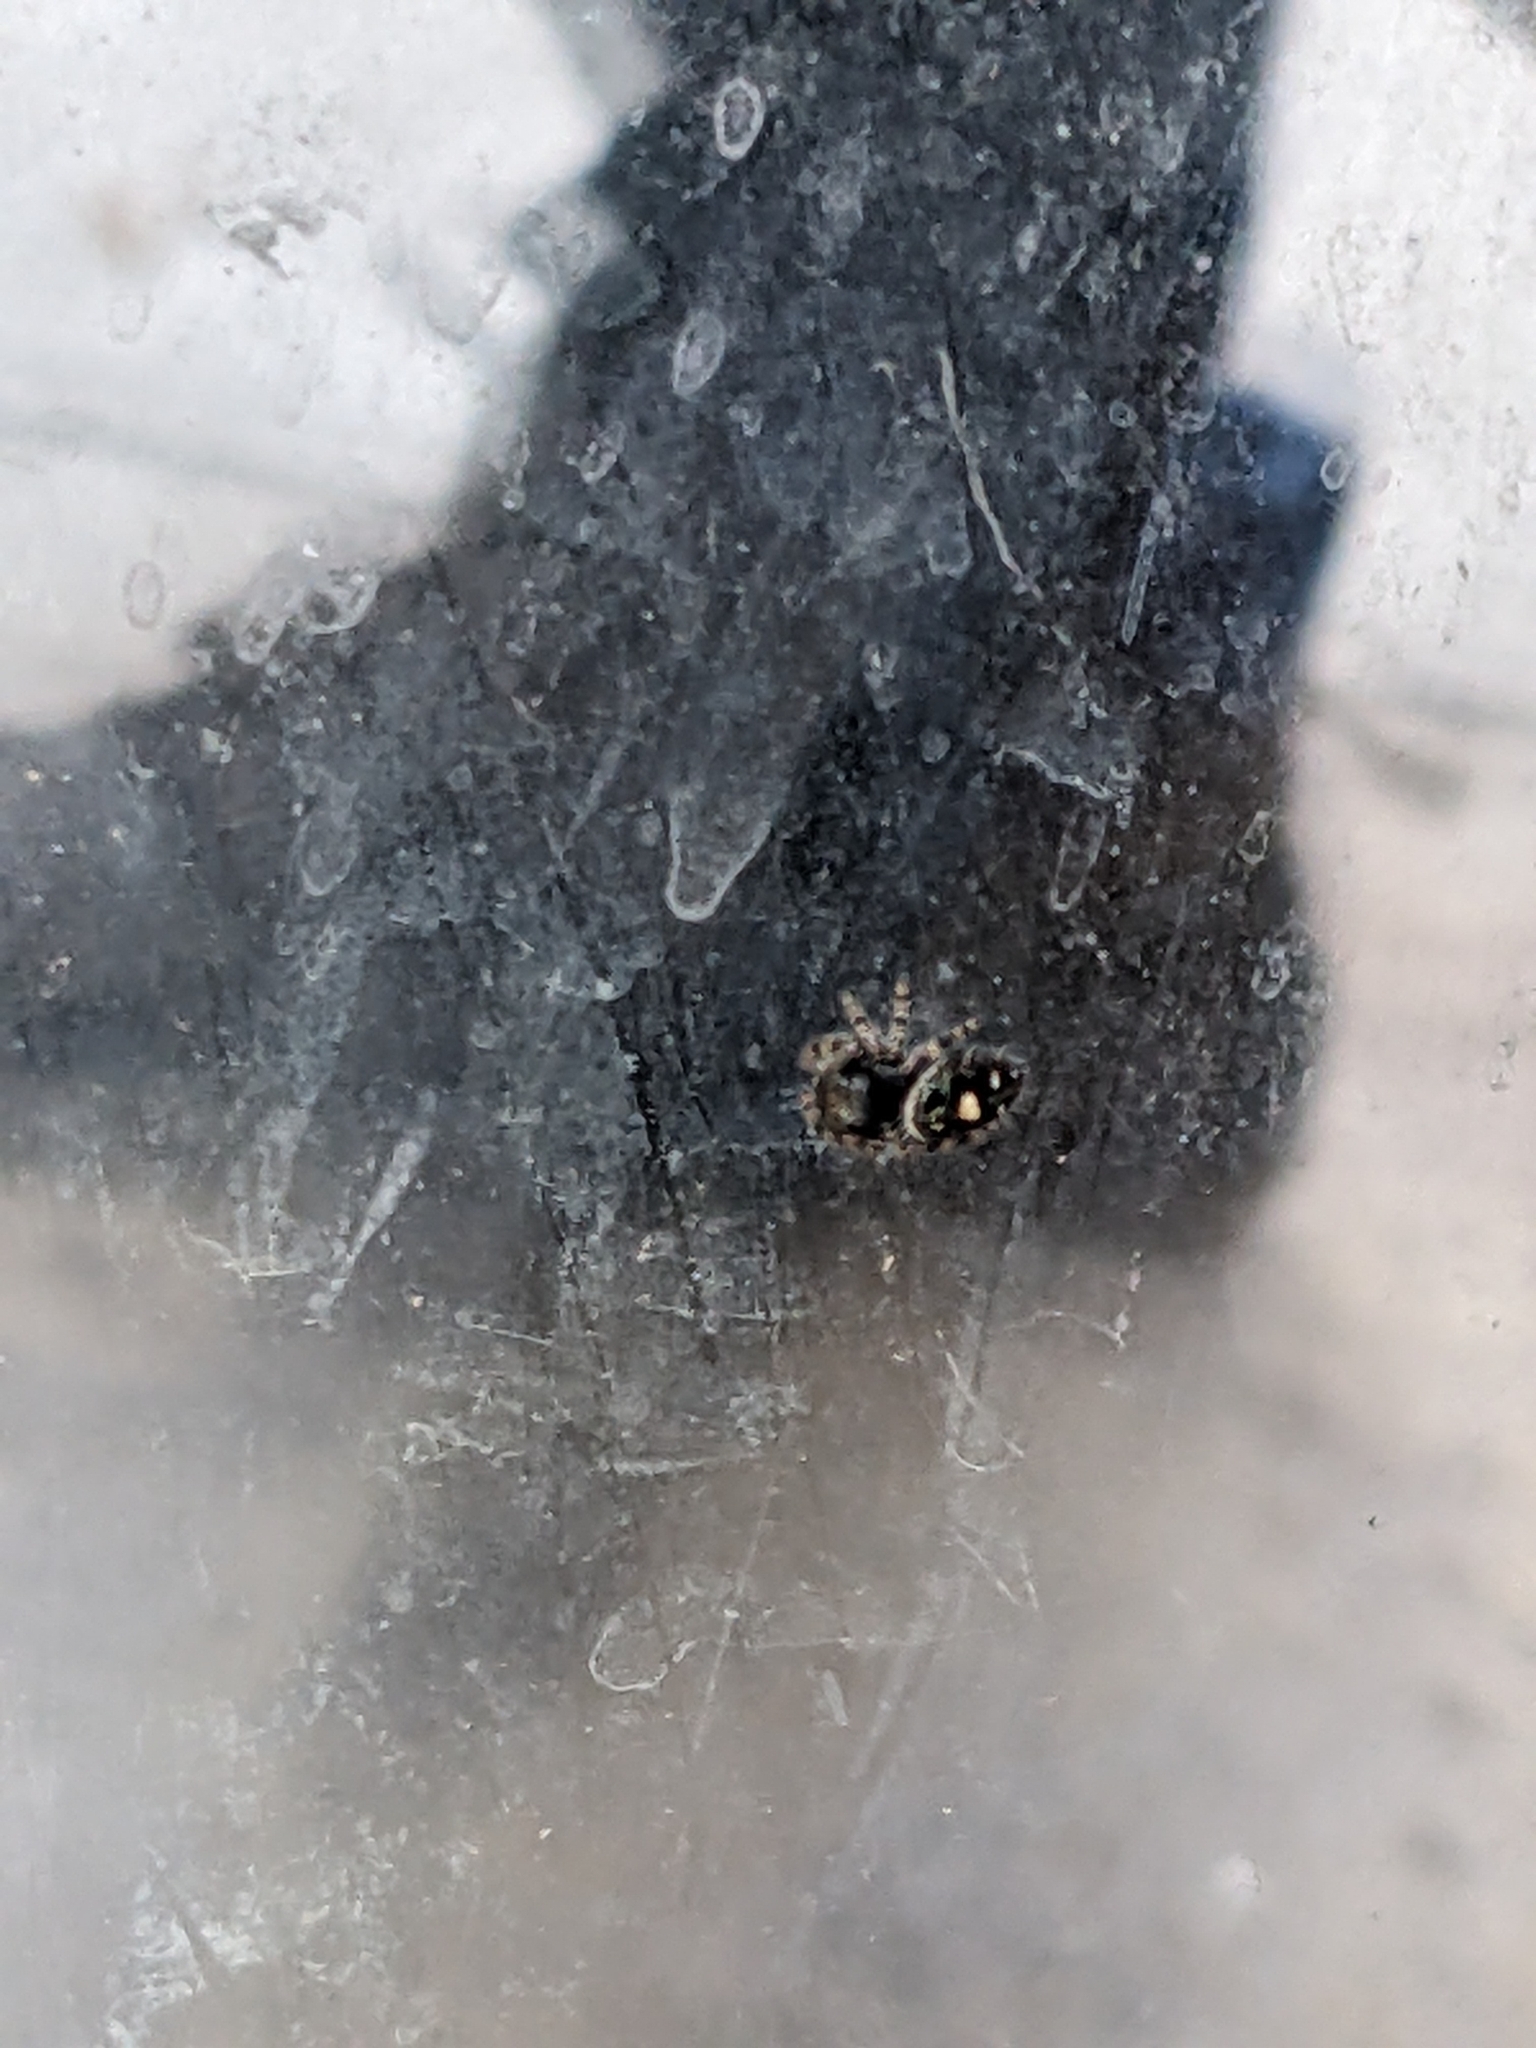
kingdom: Animalia
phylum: Arthropoda
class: Arachnida
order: Araneae
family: Salticidae
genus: Phidippus
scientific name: Phidippus audax
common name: Bold jumper
